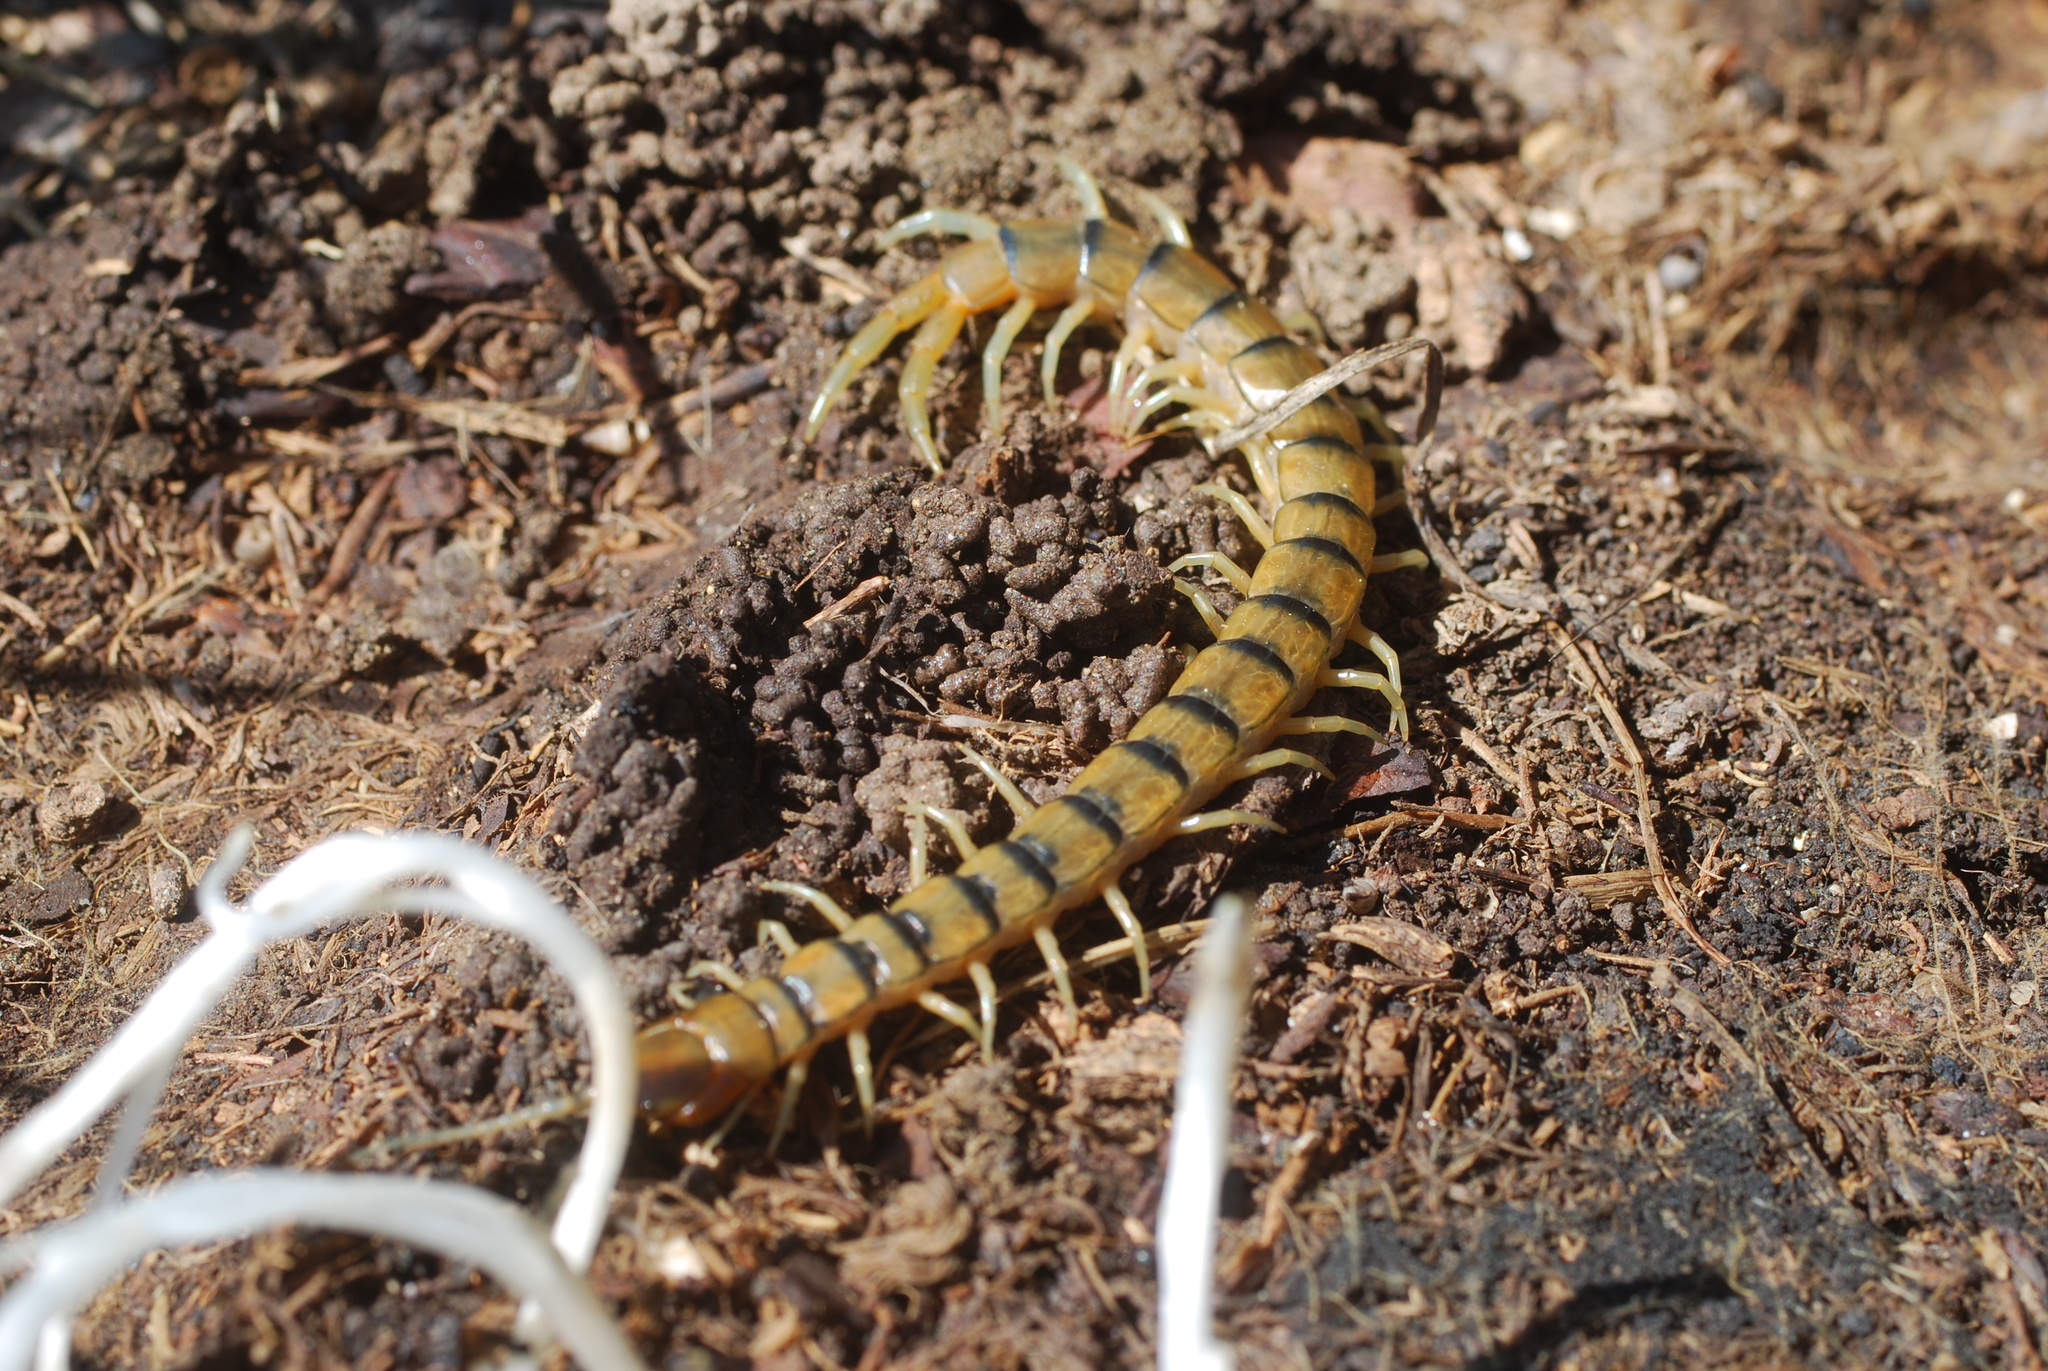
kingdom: Animalia
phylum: Arthropoda
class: Chilopoda
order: Scolopendromorpha
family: Scolopendridae
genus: Scolopendra
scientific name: Scolopendra cingulata
